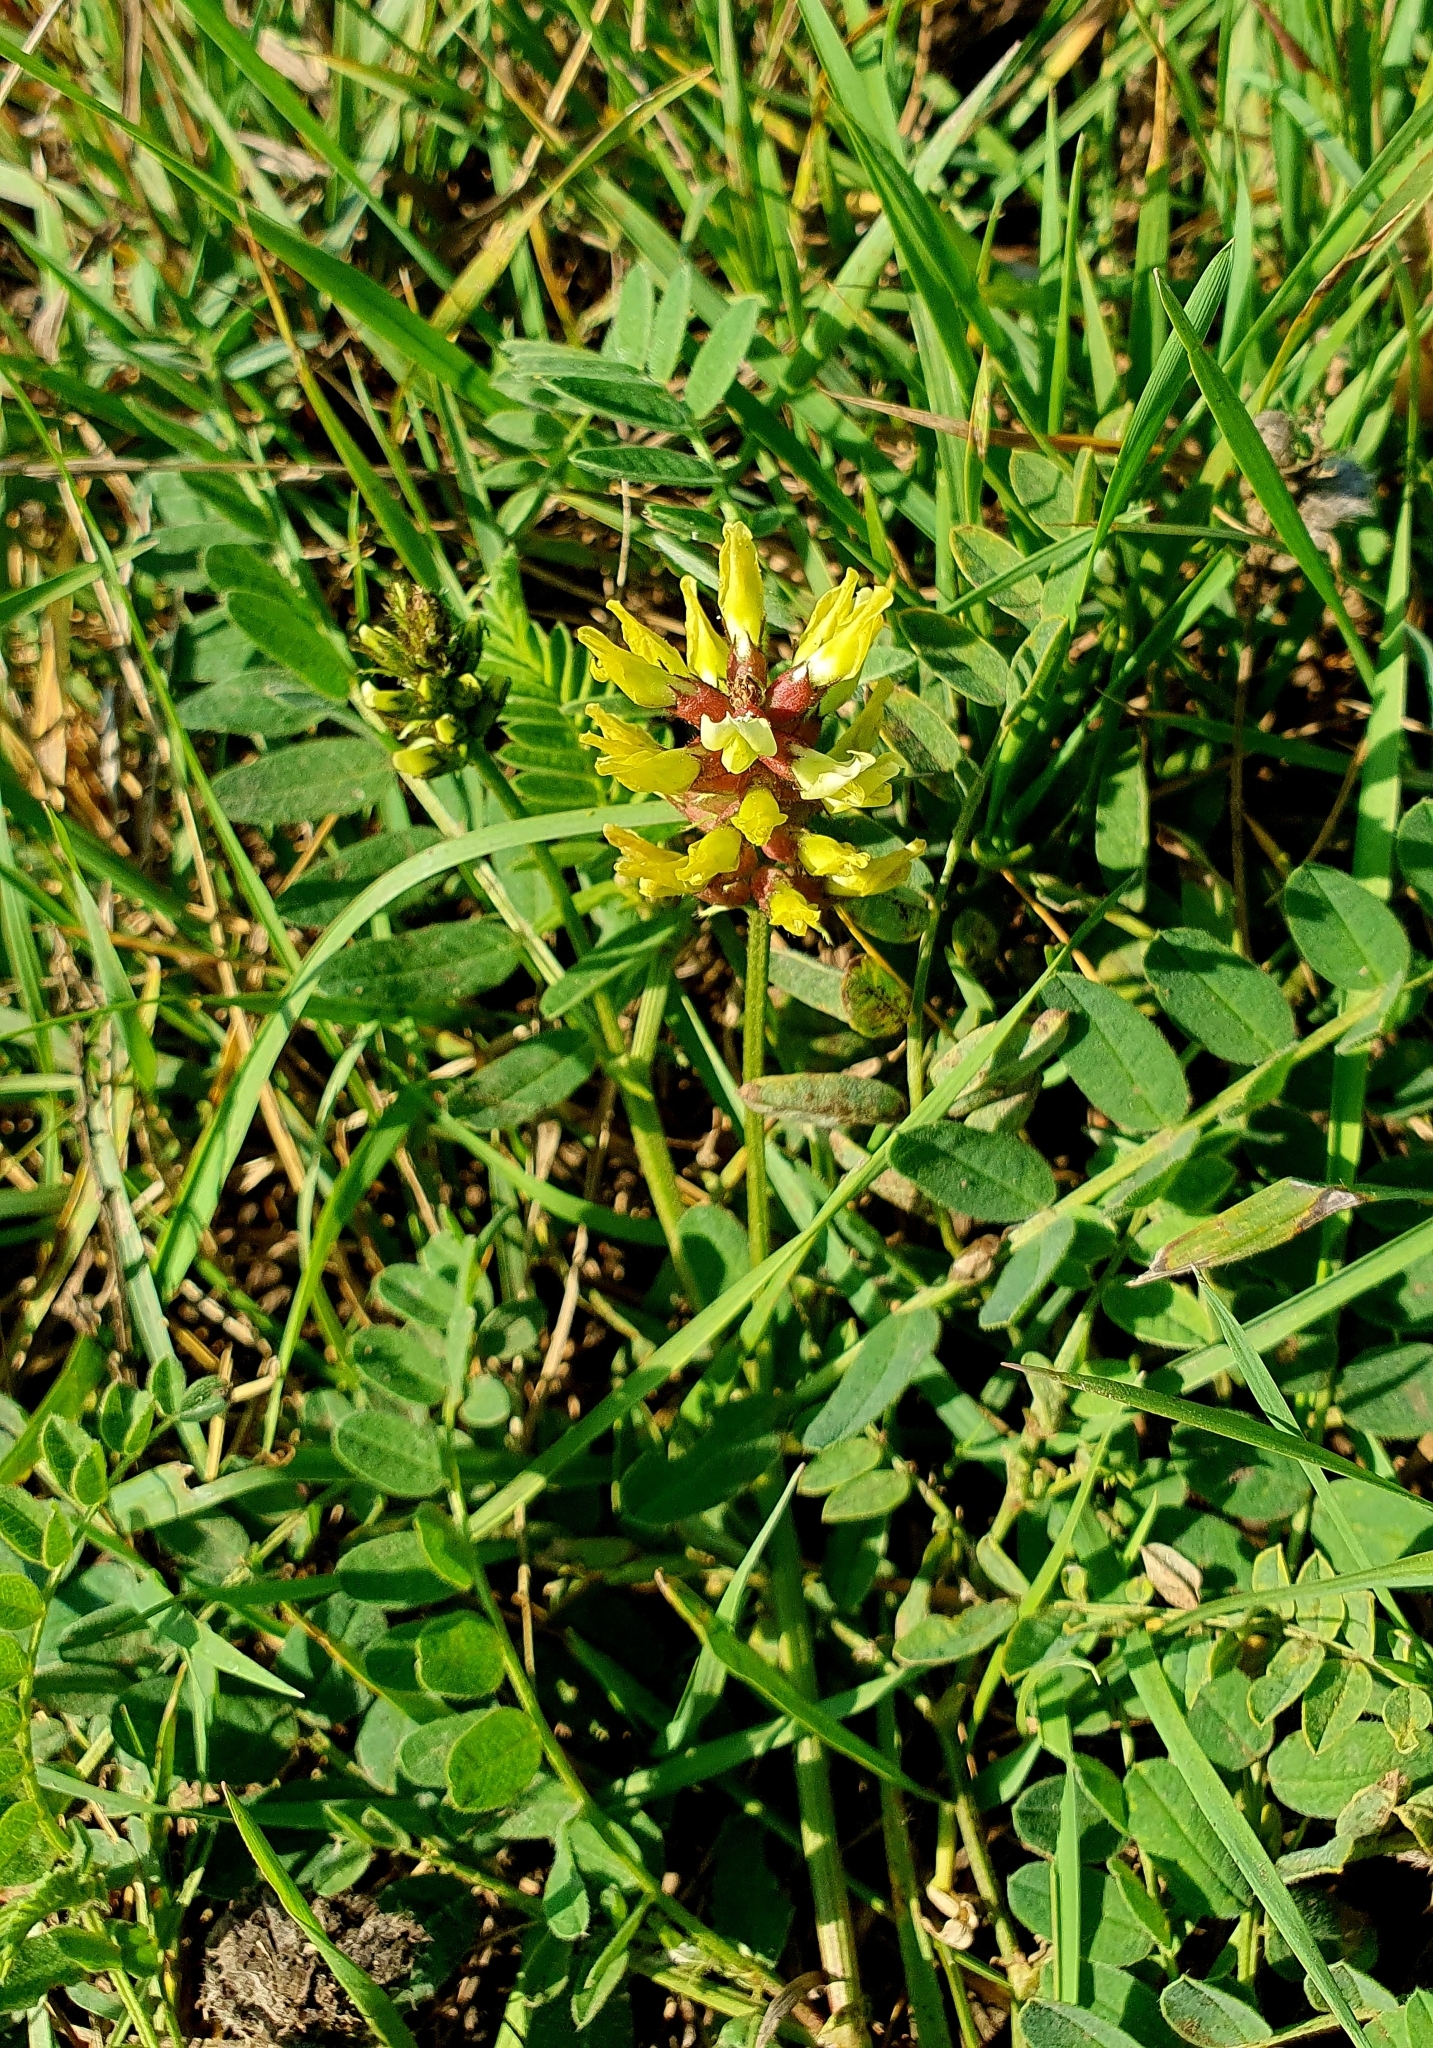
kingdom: Plantae
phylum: Tracheophyta
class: Magnoliopsida
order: Fabales
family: Fabaceae
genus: Astragalus
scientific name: Astragalus cicer
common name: Chick-pea milk-vetch
